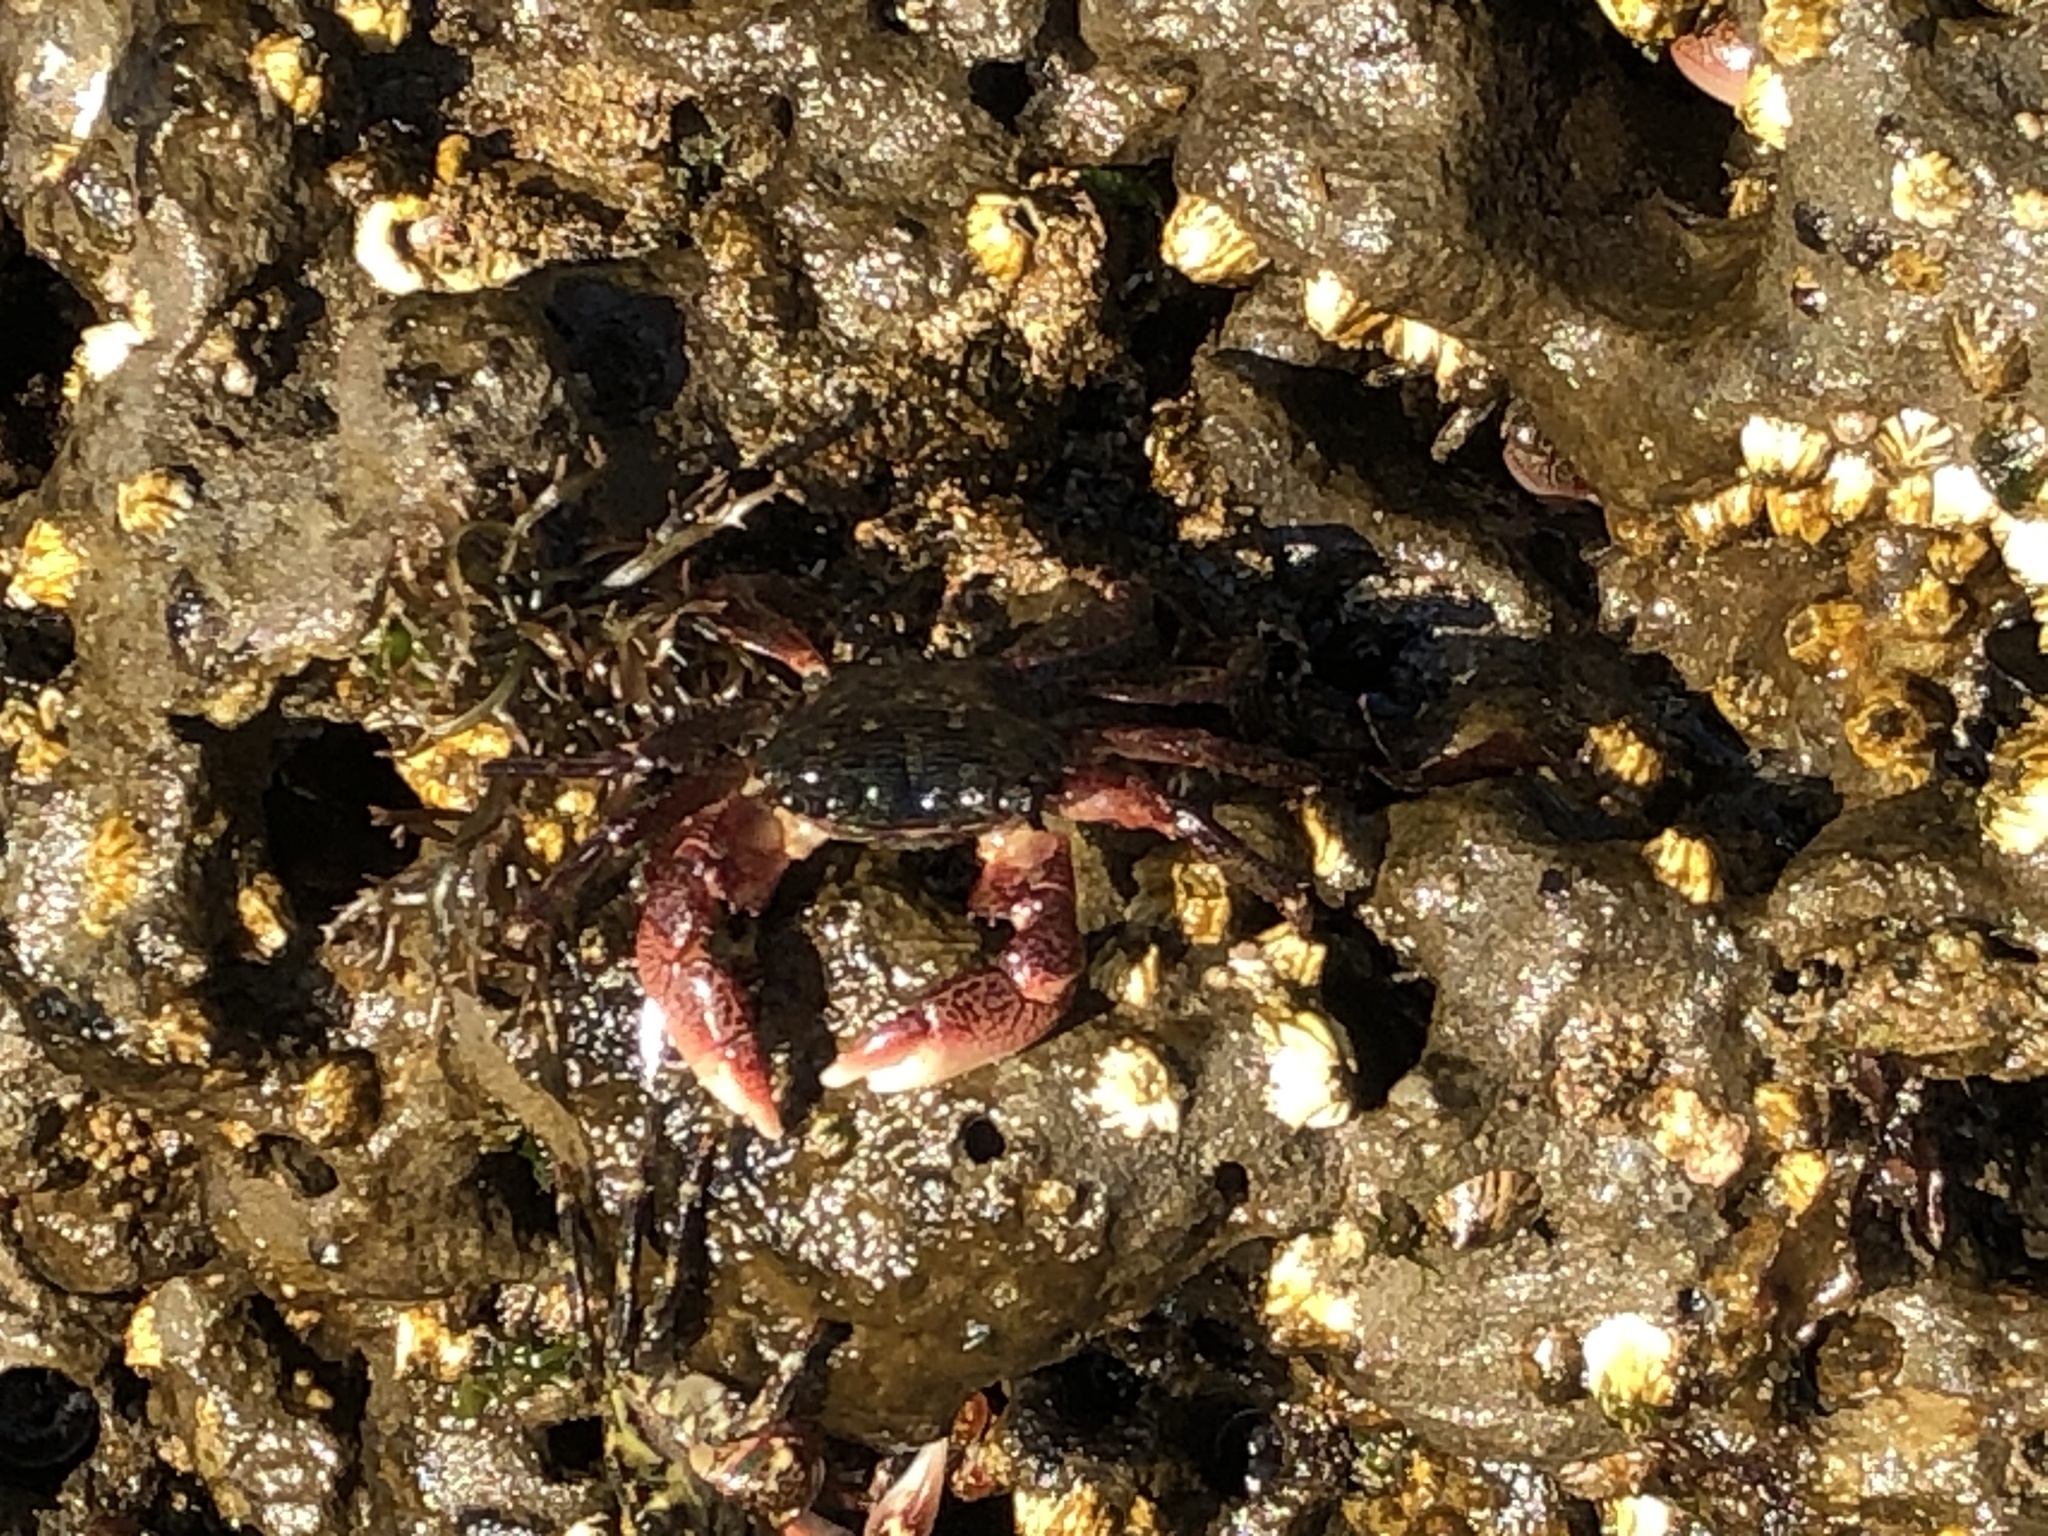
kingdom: Animalia
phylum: Arthropoda
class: Malacostraca
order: Decapoda
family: Grapsidae
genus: Pachygrapsus
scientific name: Pachygrapsus crassipes
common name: Striped shore crab
